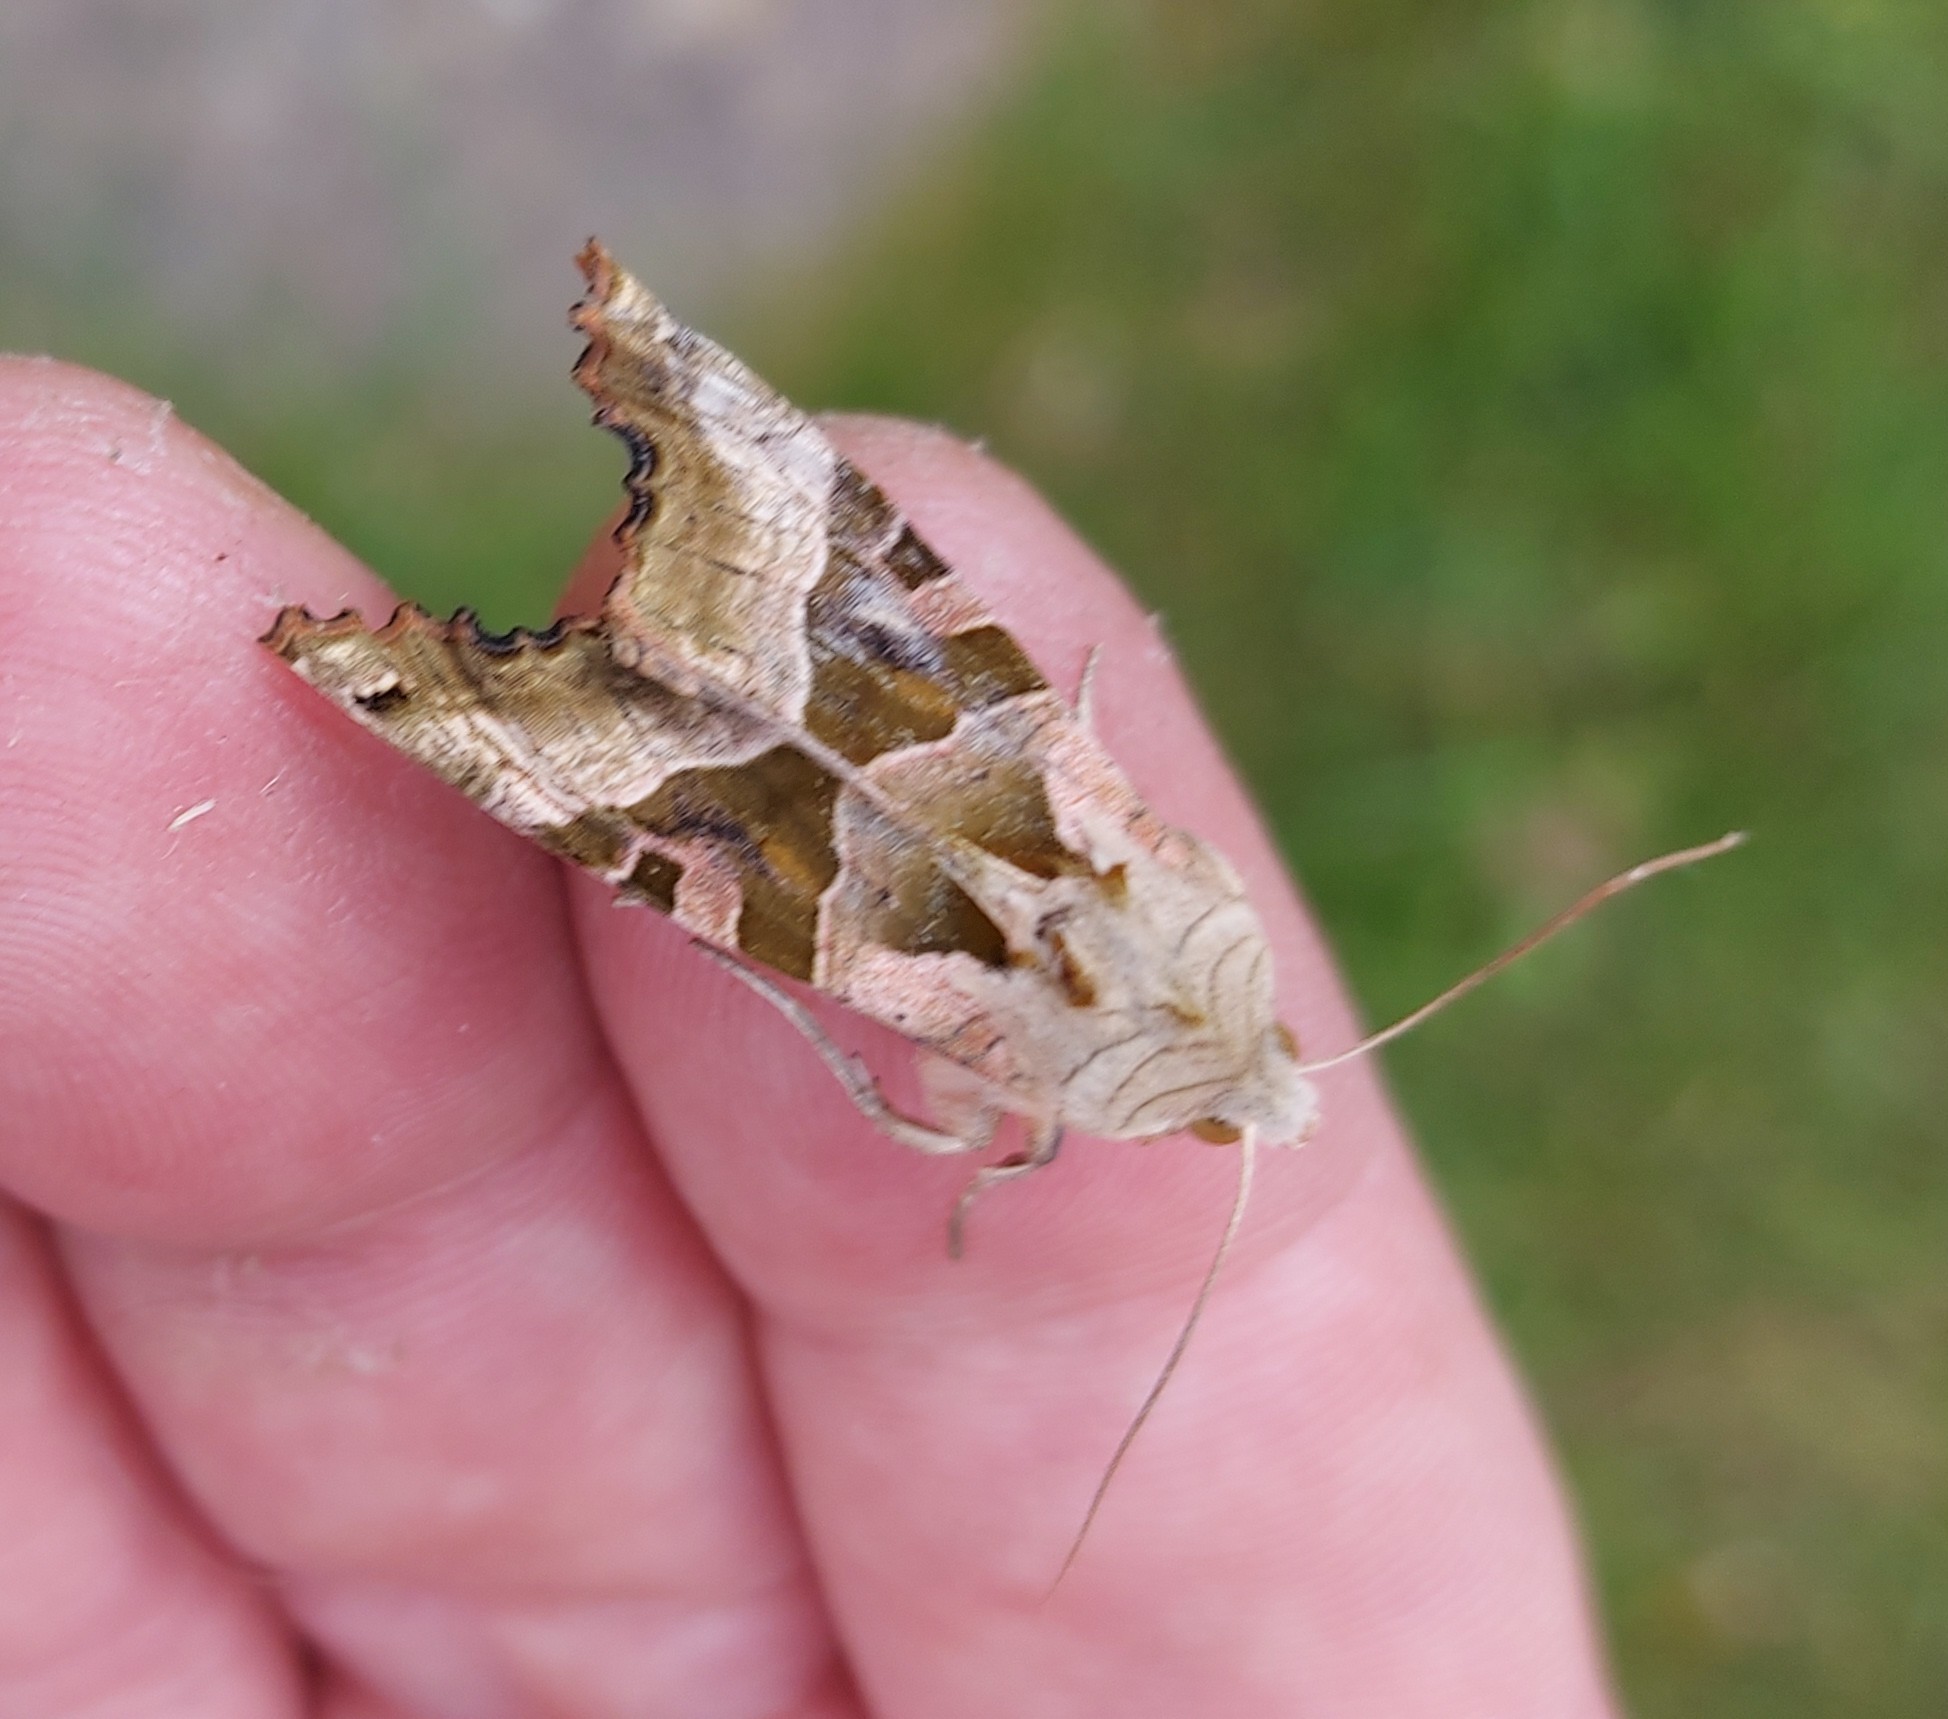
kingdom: Animalia
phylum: Arthropoda
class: Insecta
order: Lepidoptera
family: Noctuidae
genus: Phlogophora
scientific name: Phlogophora meticulosa
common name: Angle shades
